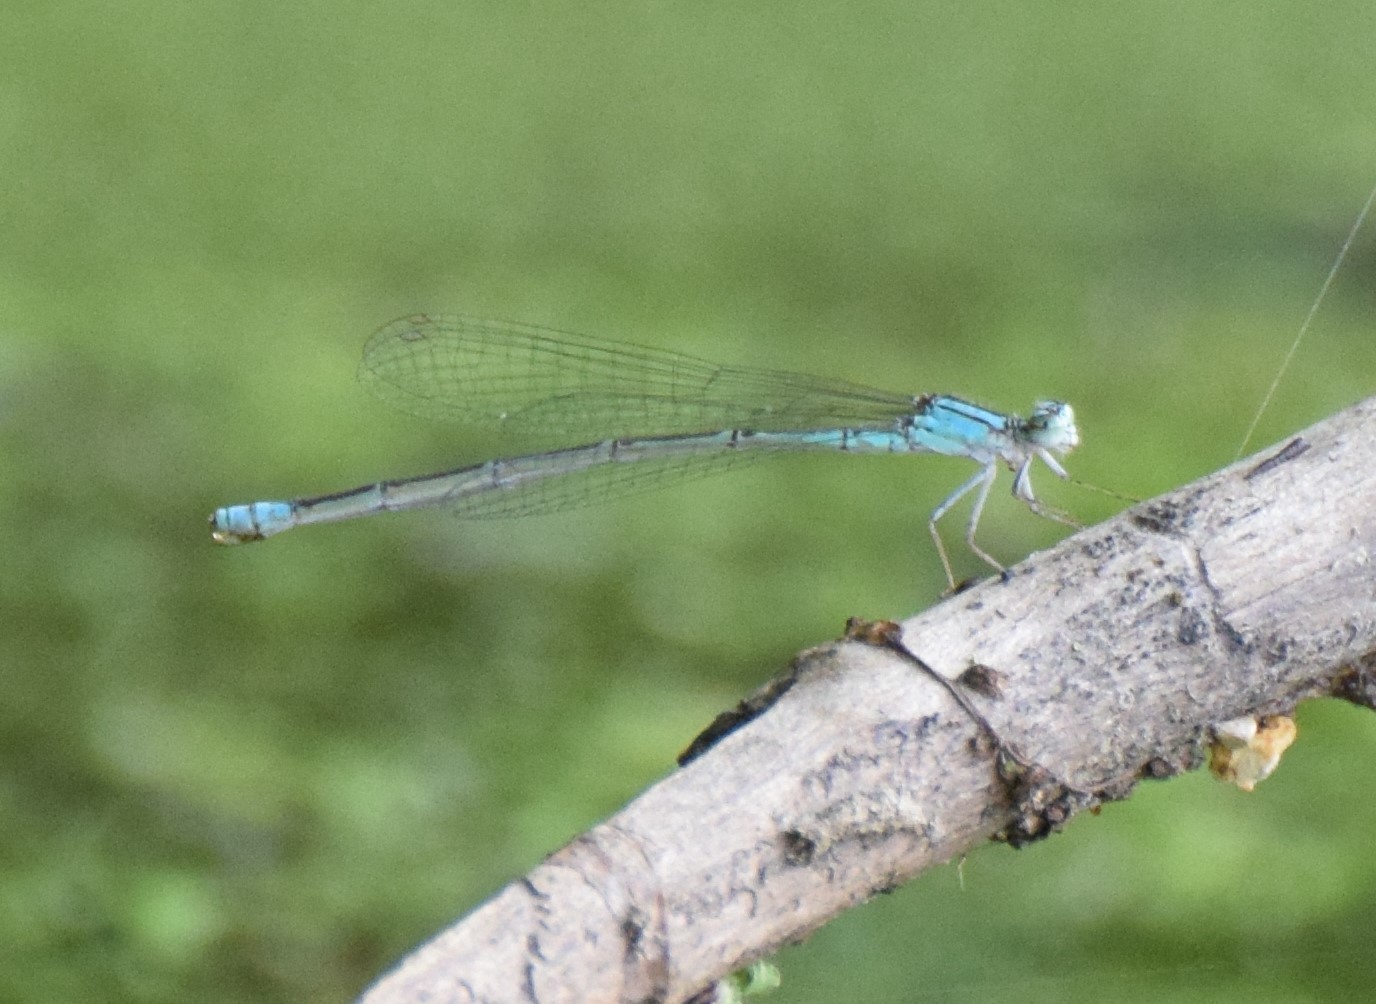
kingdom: Animalia
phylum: Arthropoda
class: Insecta
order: Odonata
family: Coenagrionidae
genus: Enallagma
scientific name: Enallagma traviatum
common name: Slender bluet
